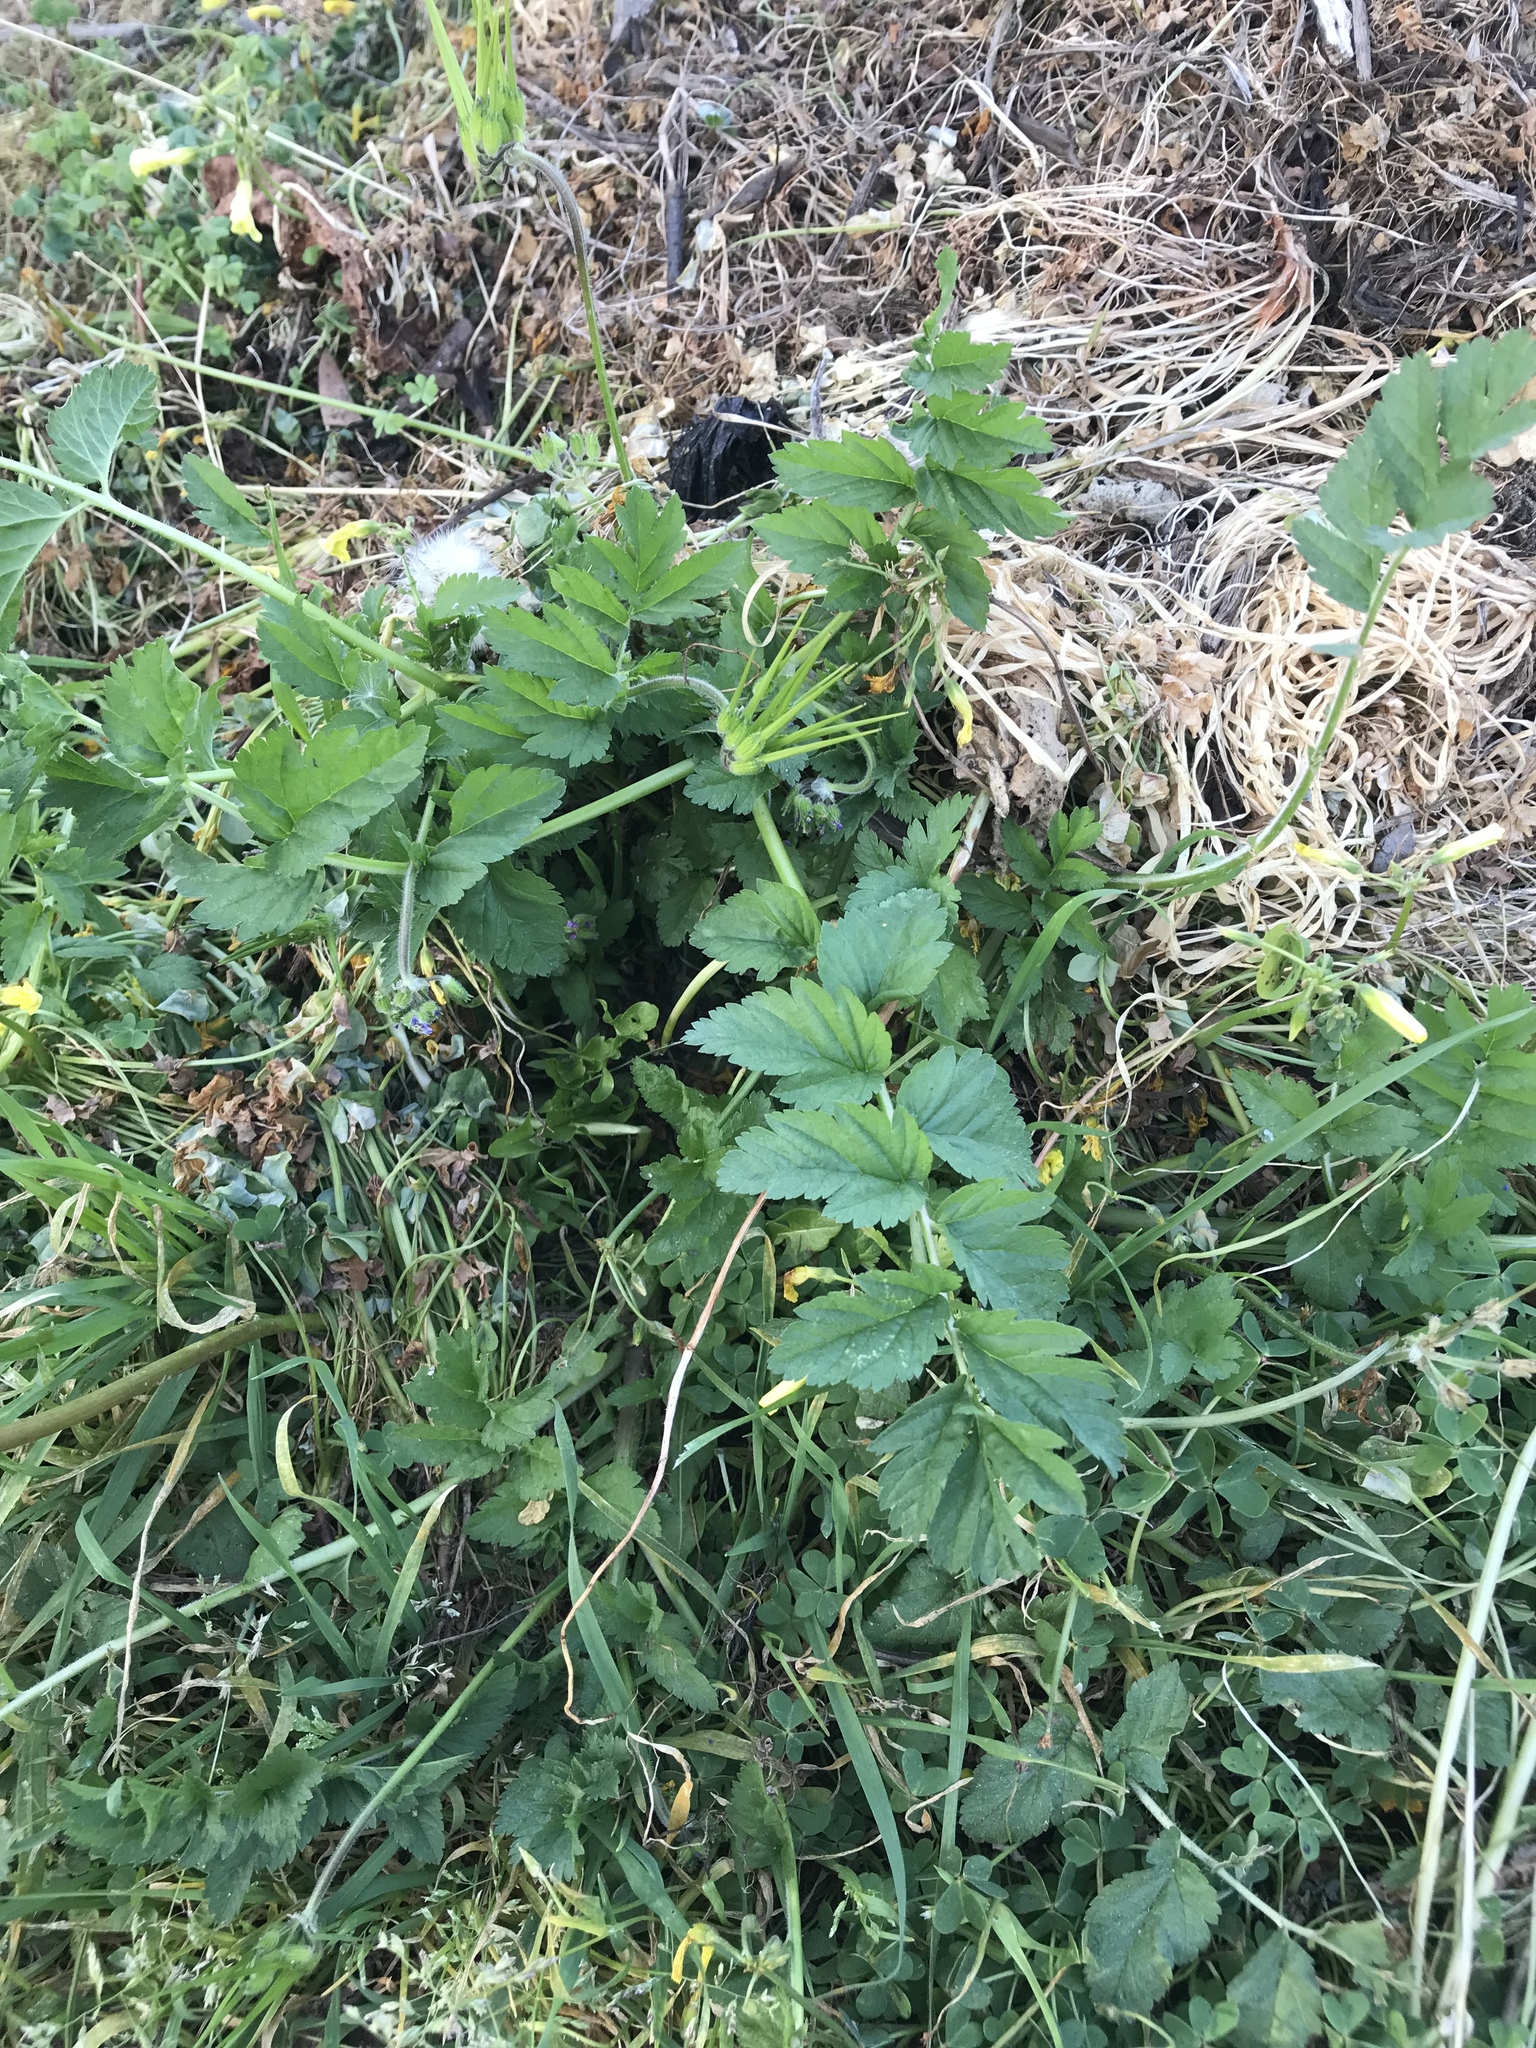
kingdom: Plantae
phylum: Tracheophyta
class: Magnoliopsida
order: Geraniales
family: Geraniaceae
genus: Erodium
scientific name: Erodium moschatum
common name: Musk stork's-bill
